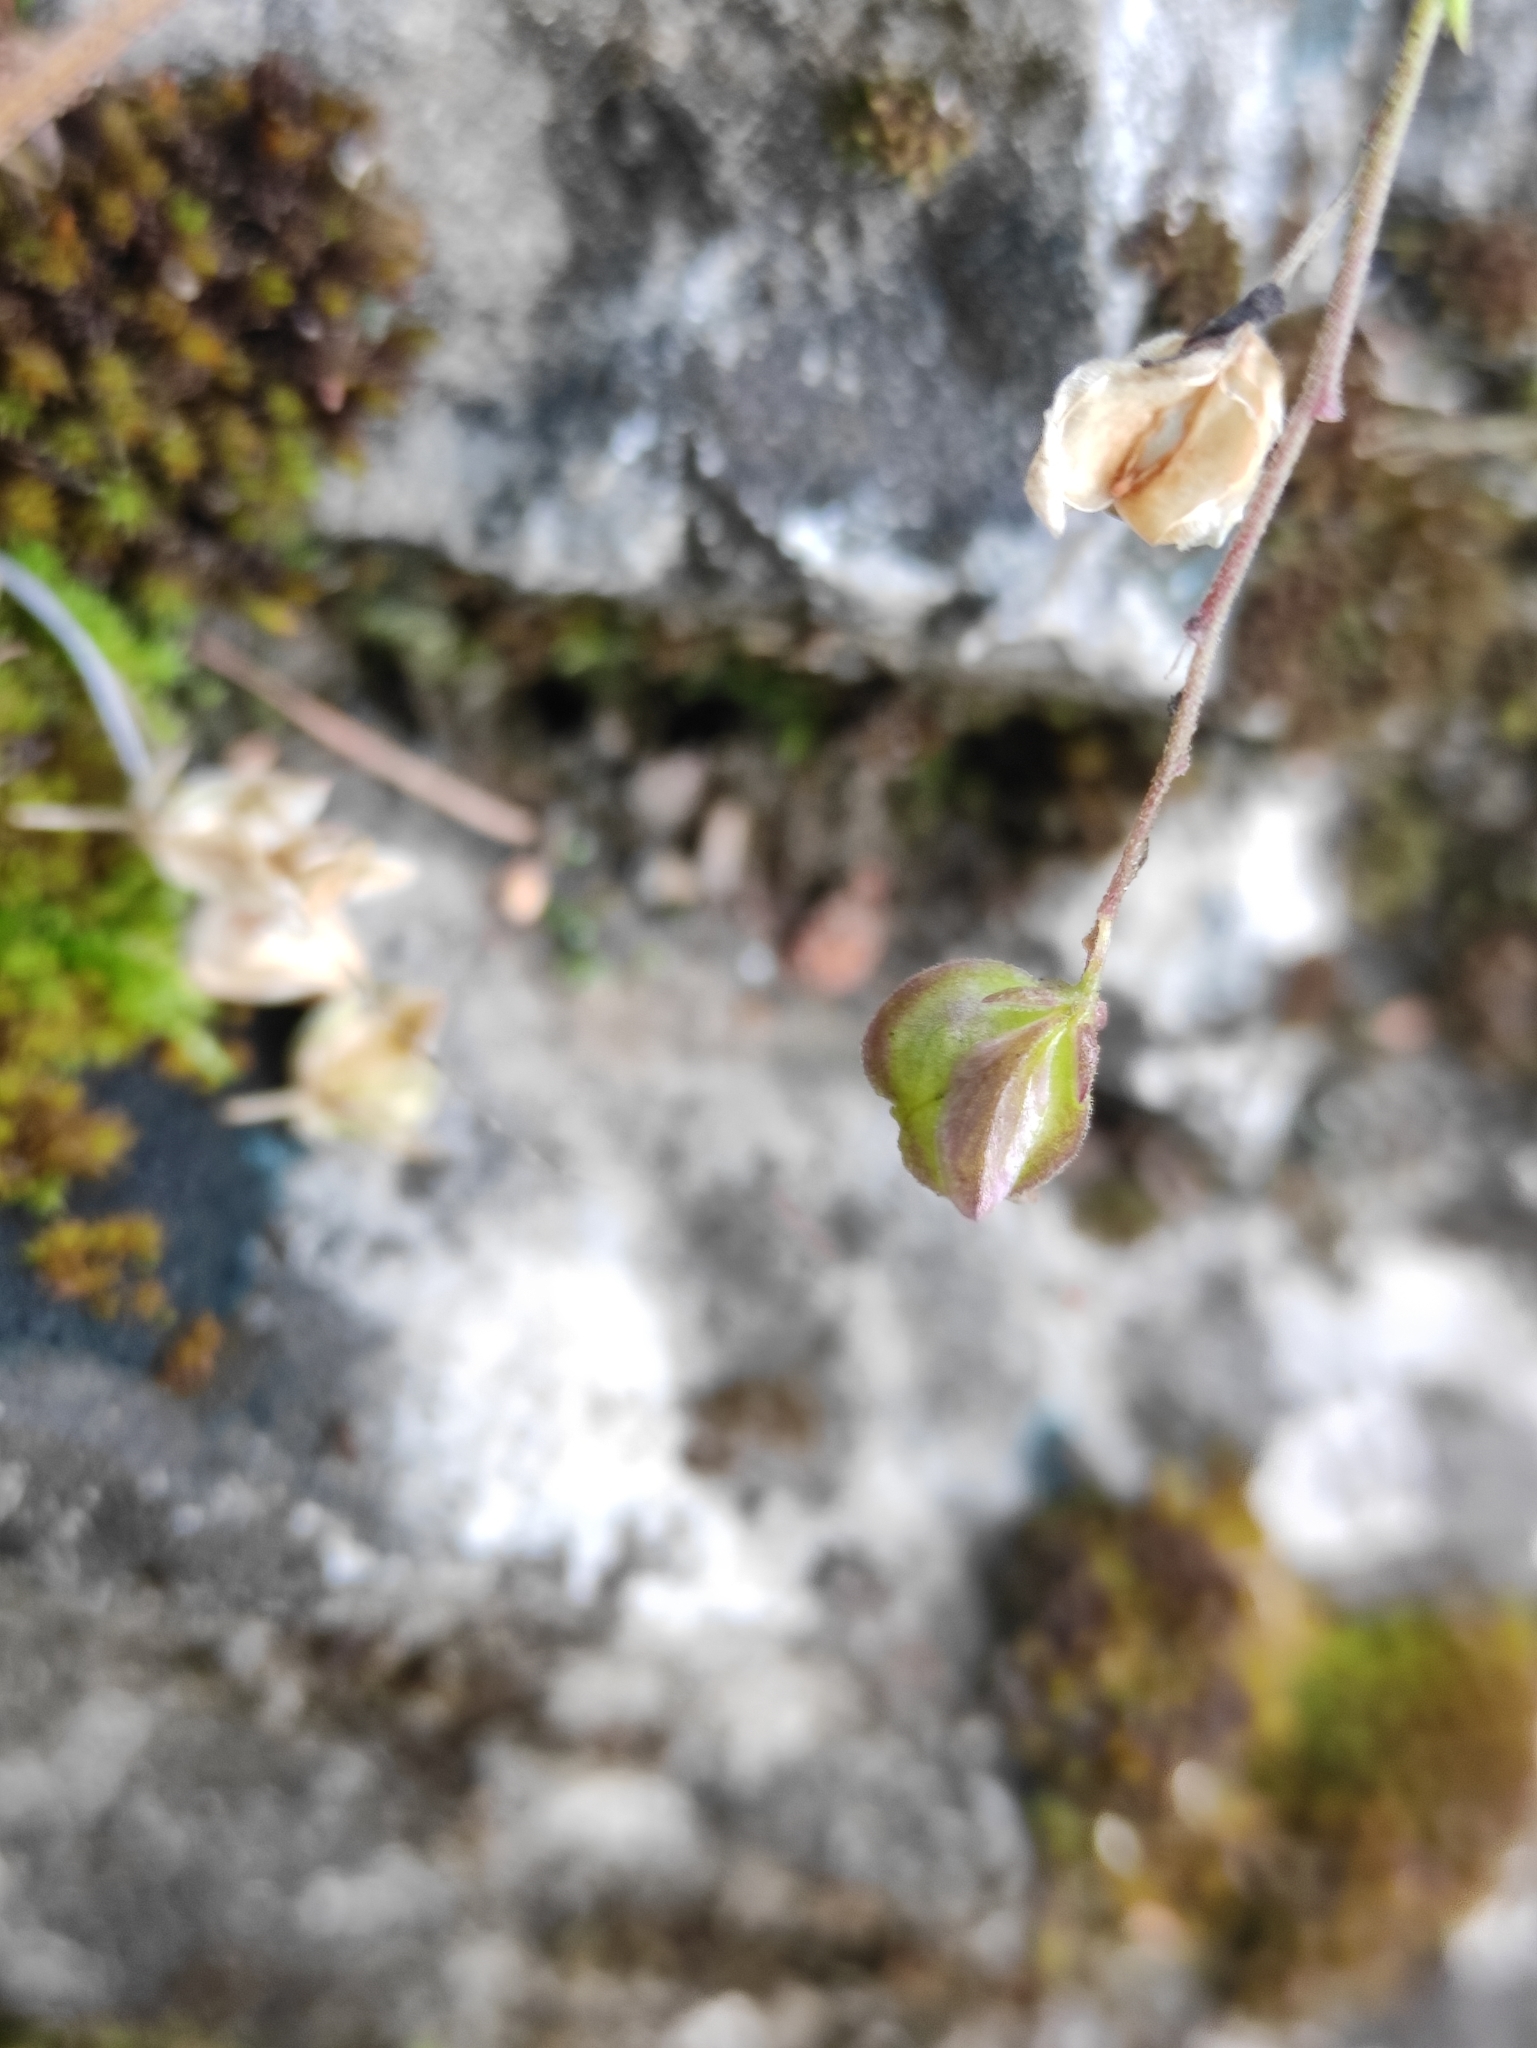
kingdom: Plantae
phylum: Tracheophyta
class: Magnoliopsida
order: Fabales
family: Polygalaceae
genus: Polygala
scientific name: Polygala sibirica
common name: Siberian polygala
